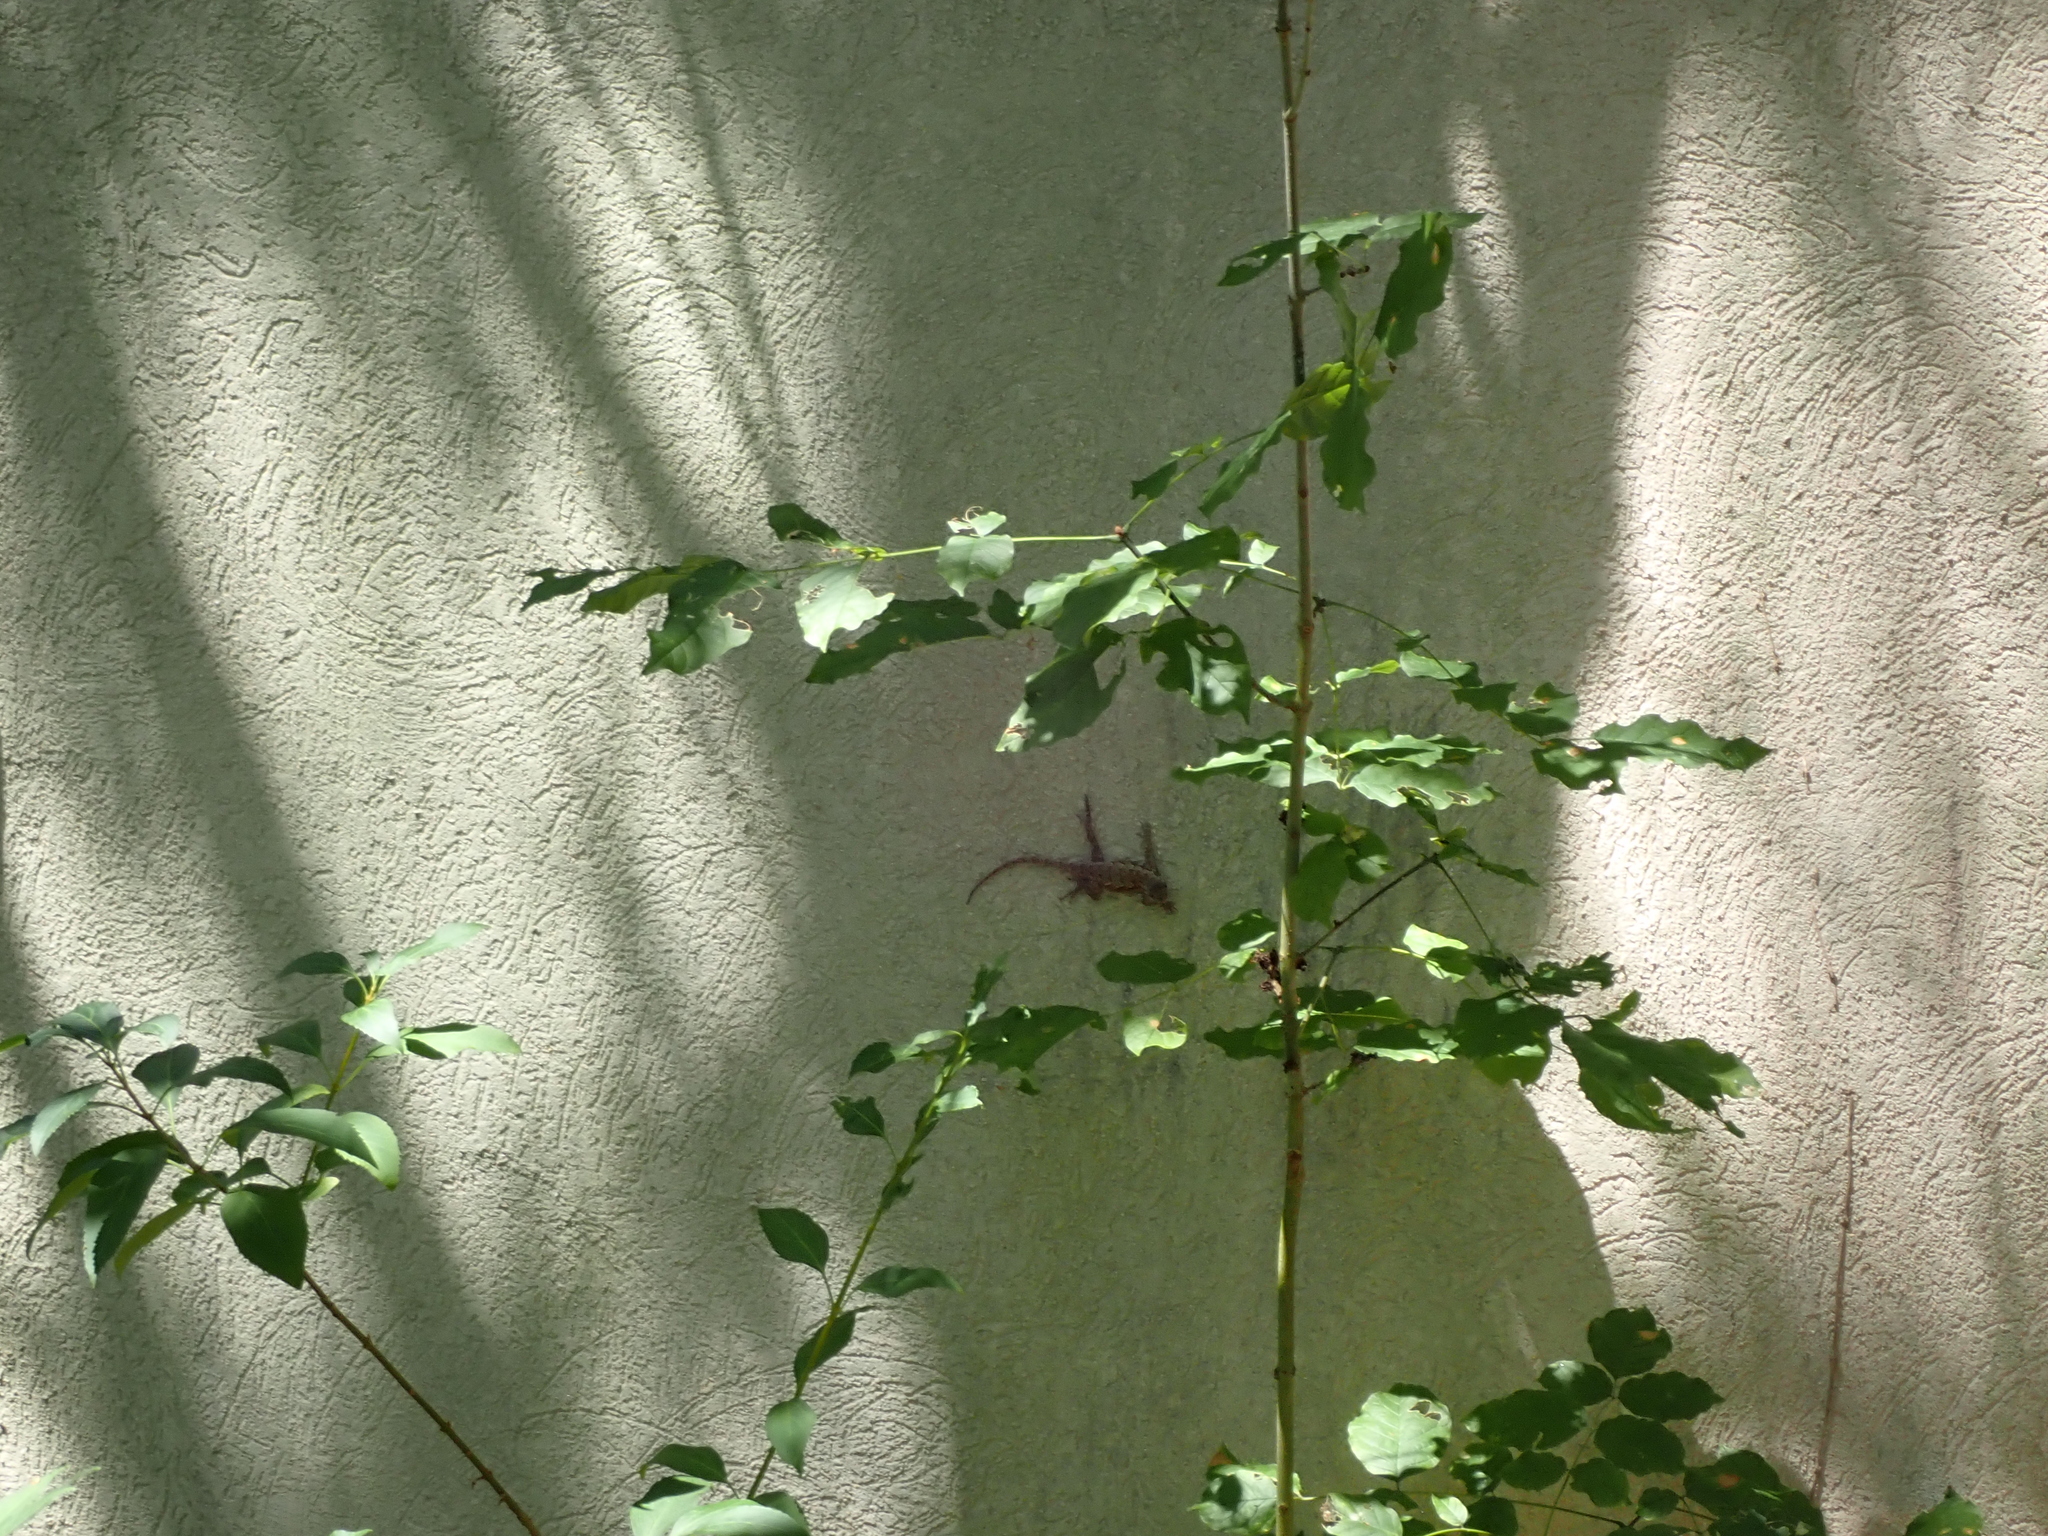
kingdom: Animalia
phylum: Chordata
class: Squamata
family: Phrynosomatidae
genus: Sceloporus
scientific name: Sceloporus undulatus
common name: Eastern fence lizard
